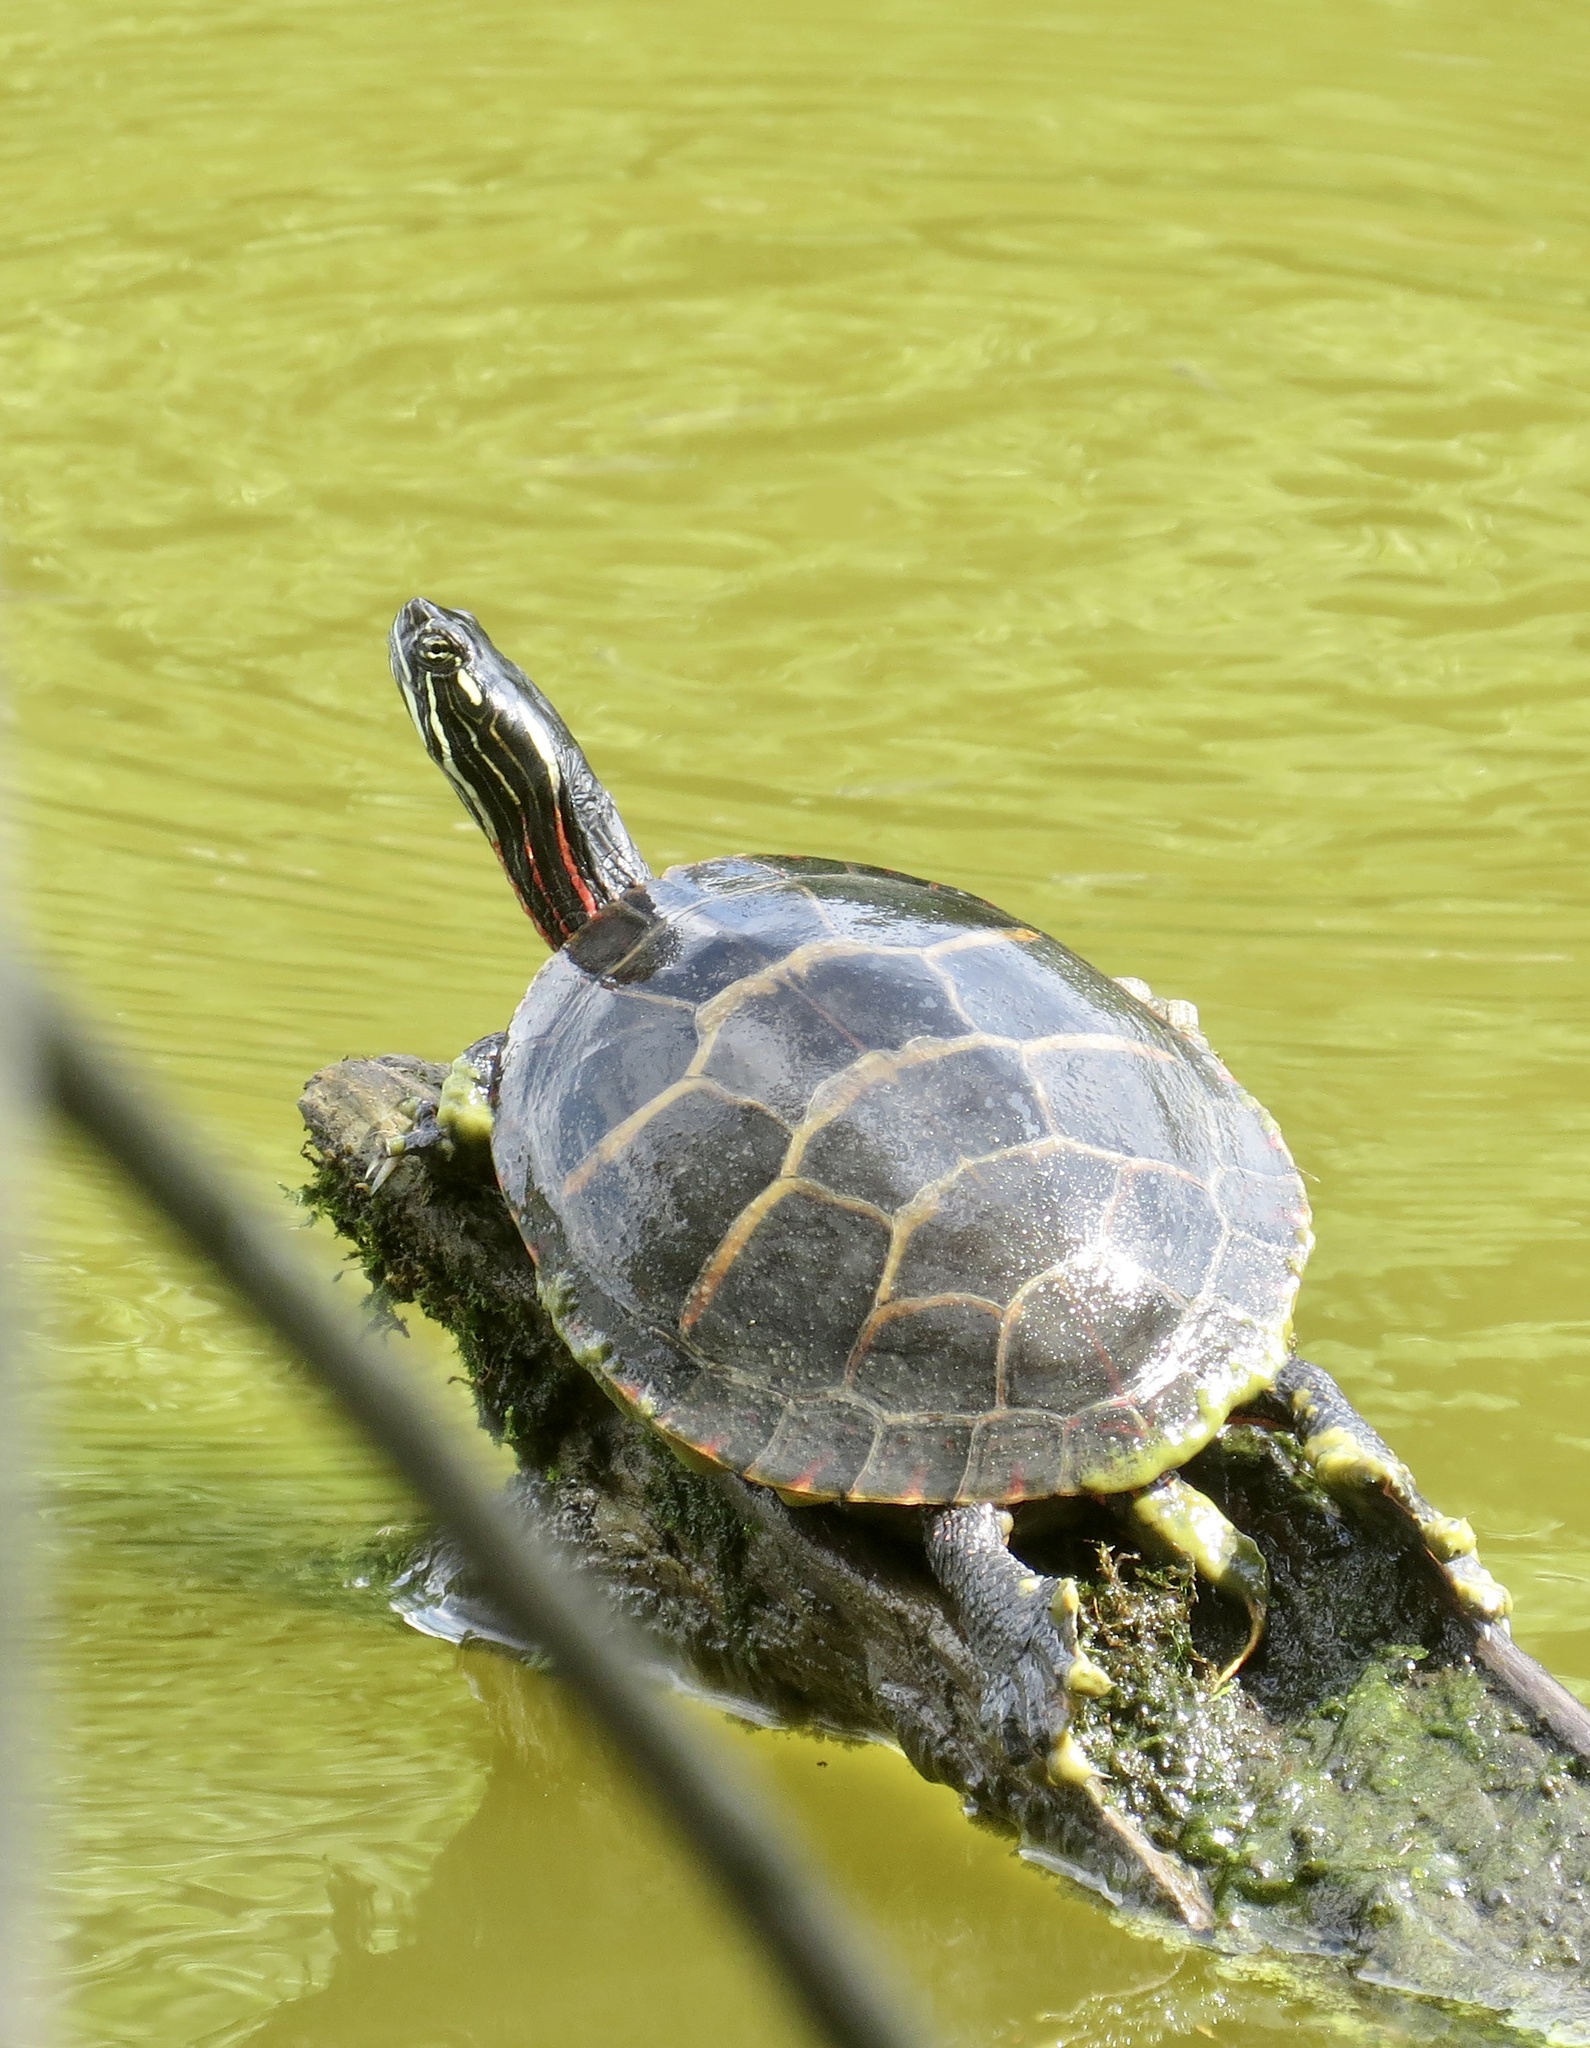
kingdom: Animalia
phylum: Chordata
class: Testudines
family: Emydidae
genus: Chrysemys
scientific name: Chrysemys picta
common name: Painted turtle
